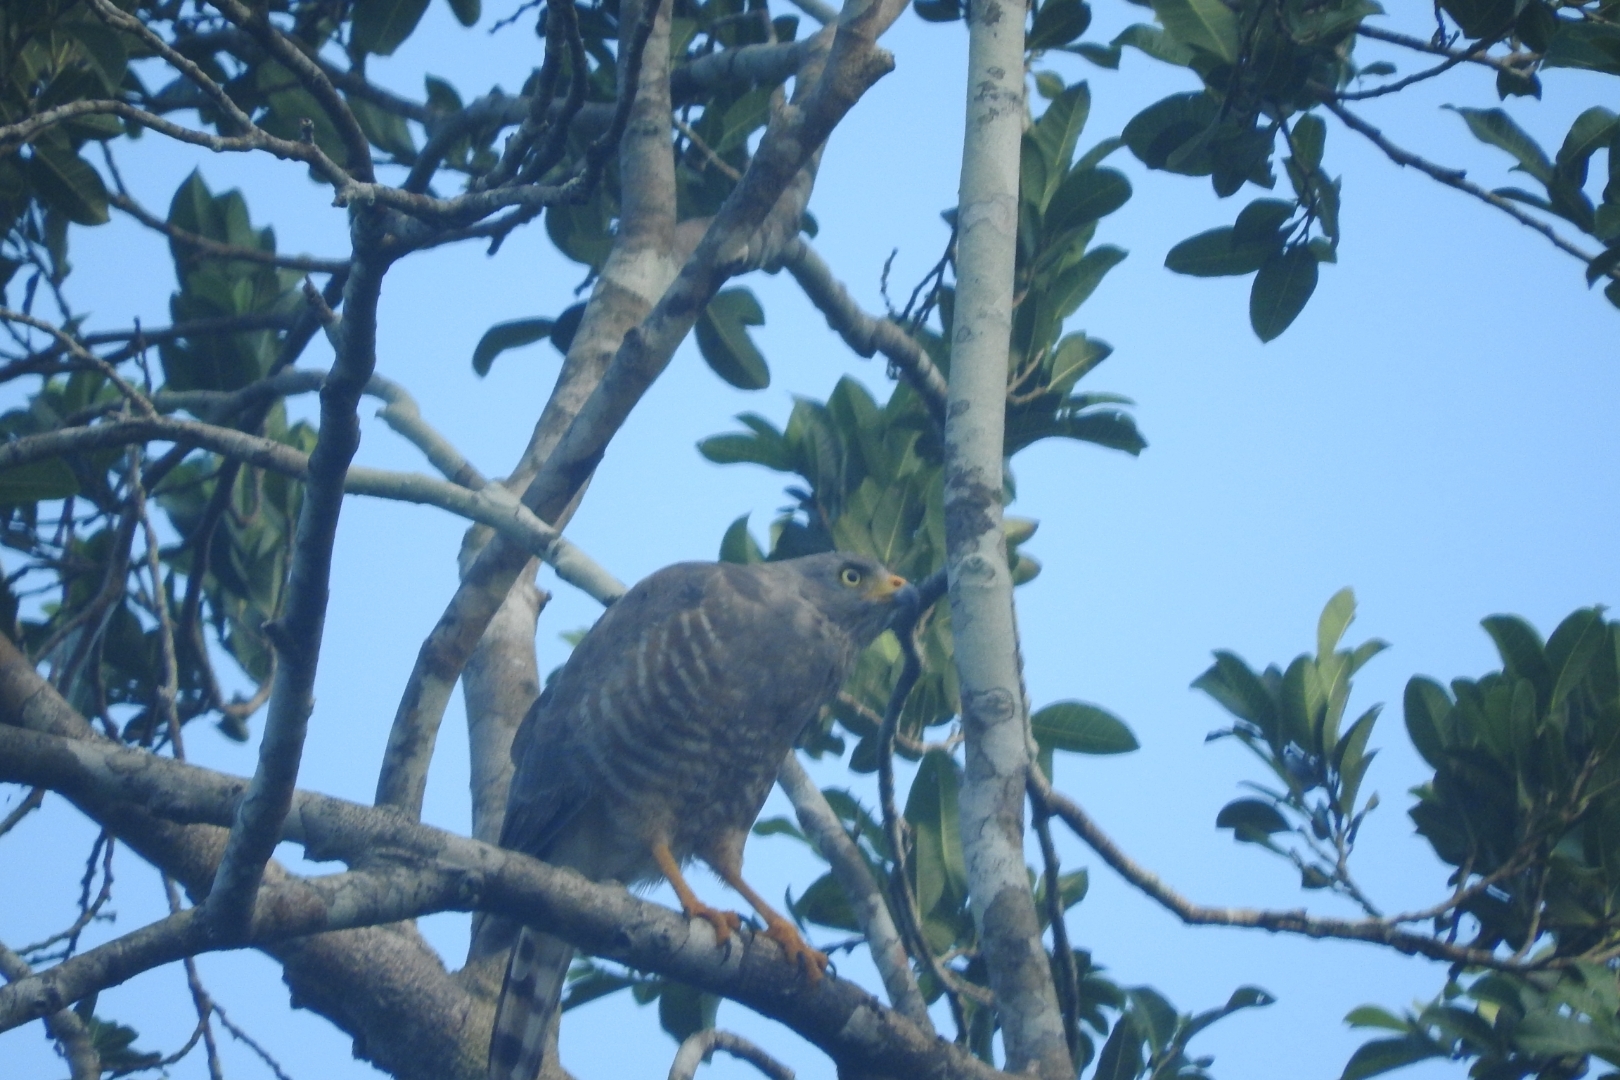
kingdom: Animalia
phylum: Chordata
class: Aves
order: Accipitriformes
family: Accipitridae
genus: Rupornis
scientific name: Rupornis magnirostris
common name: Roadside hawk
